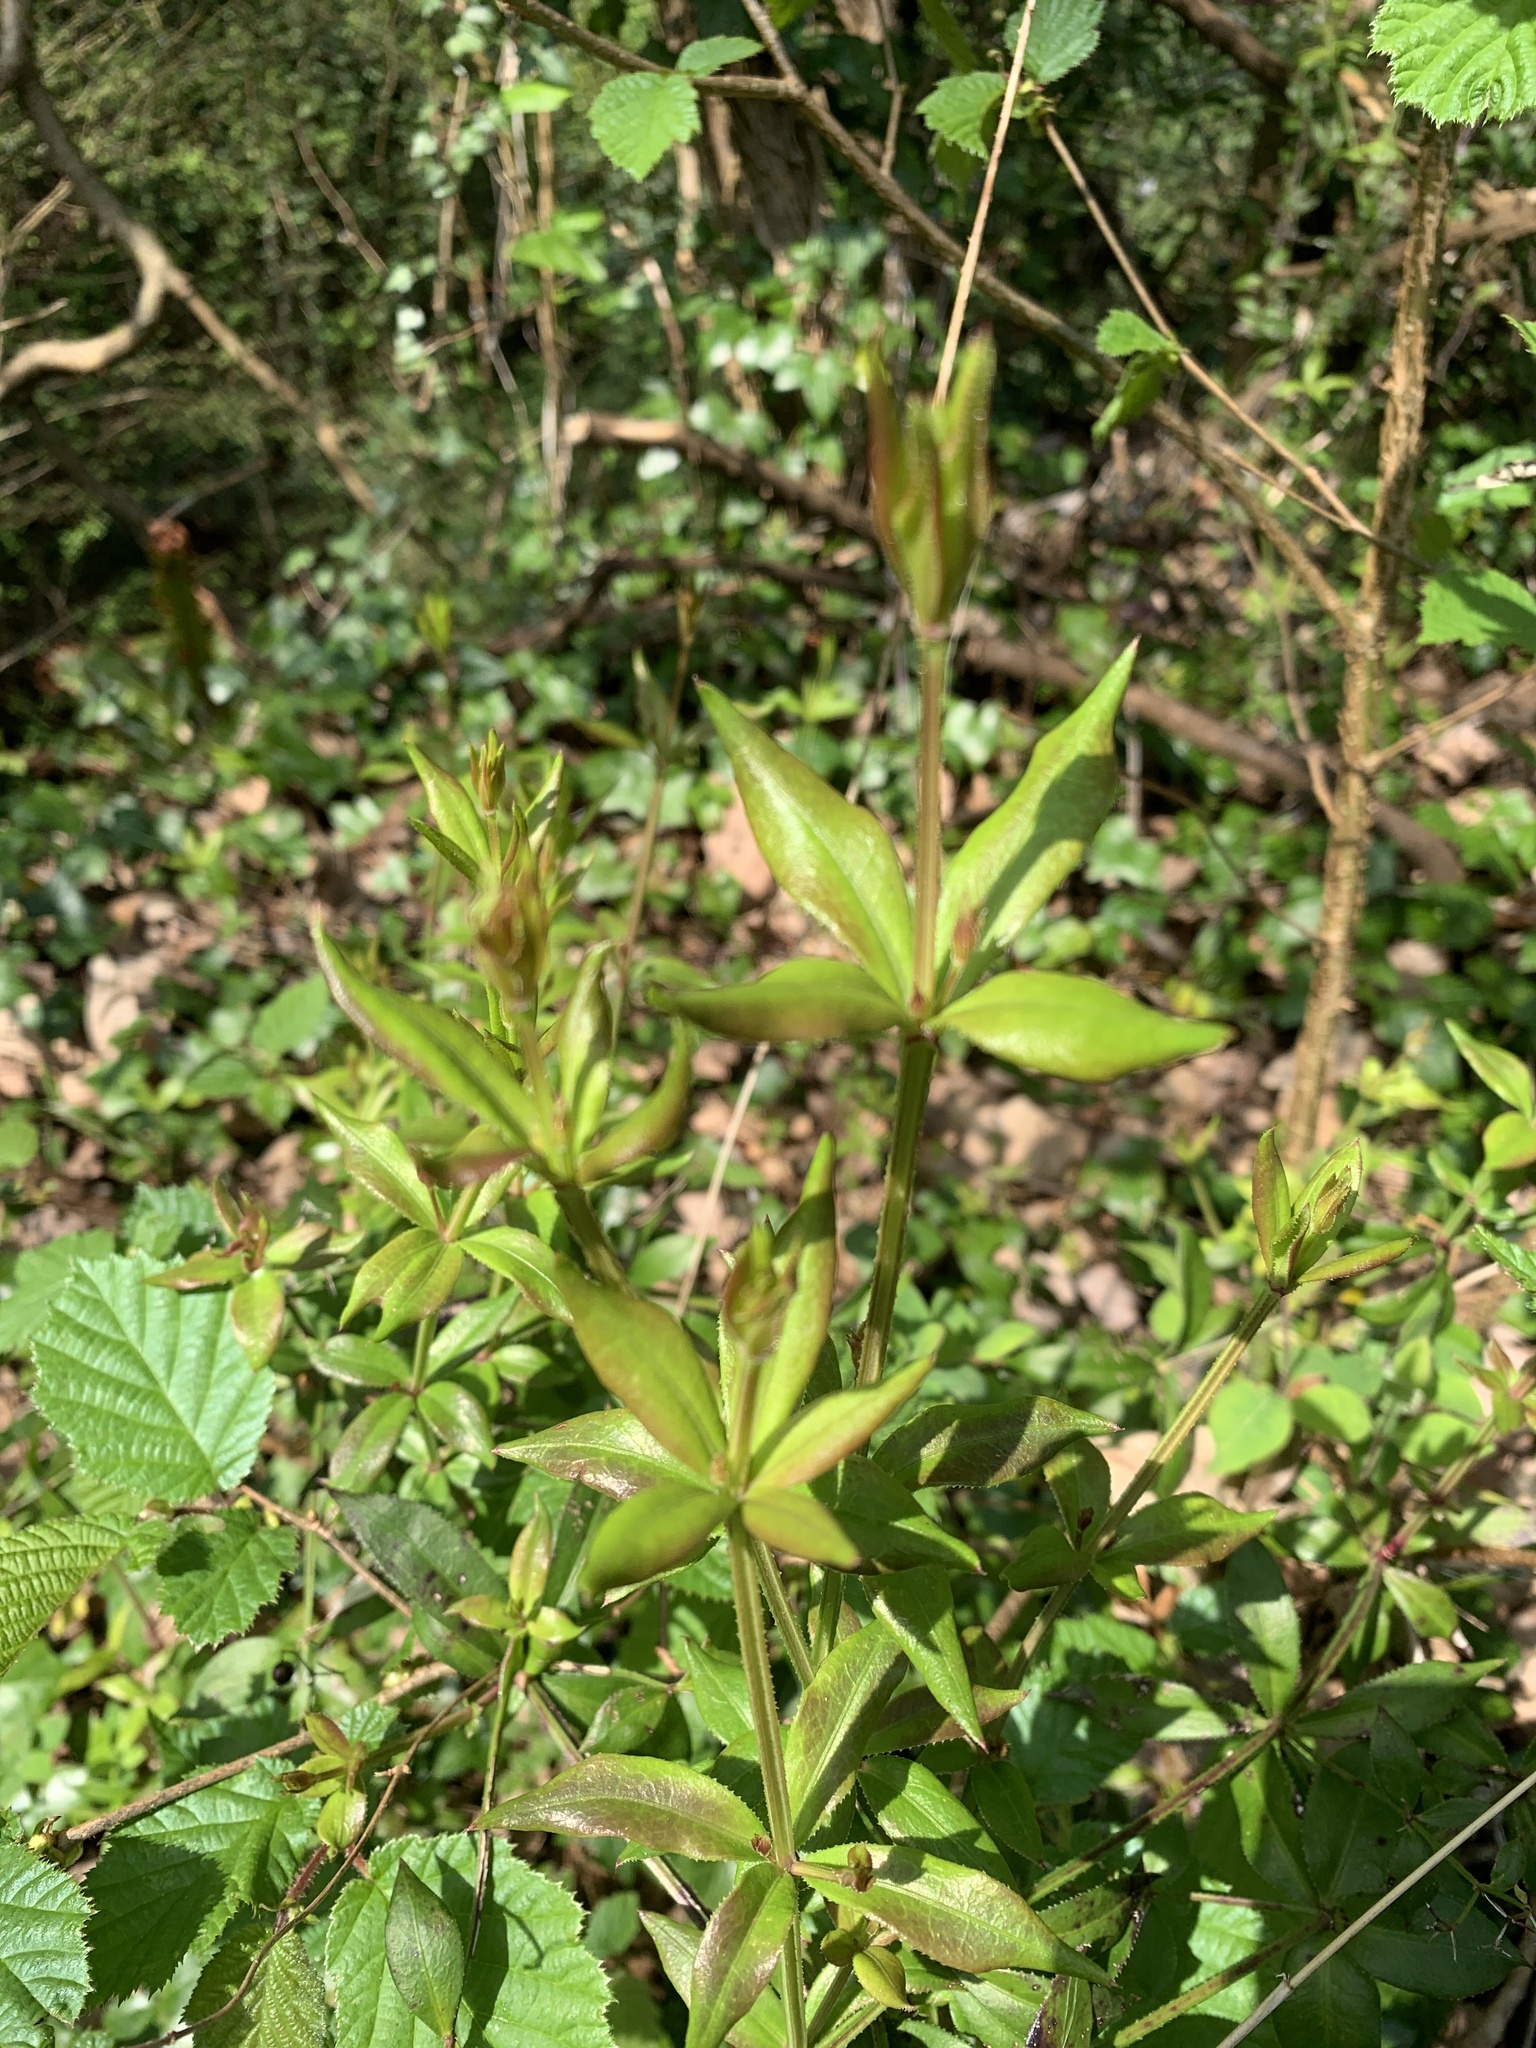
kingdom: Plantae
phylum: Tracheophyta
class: Magnoliopsida
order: Gentianales
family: Rubiaceae
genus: Rubia
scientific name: Rubia peregrina
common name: Wild madder
